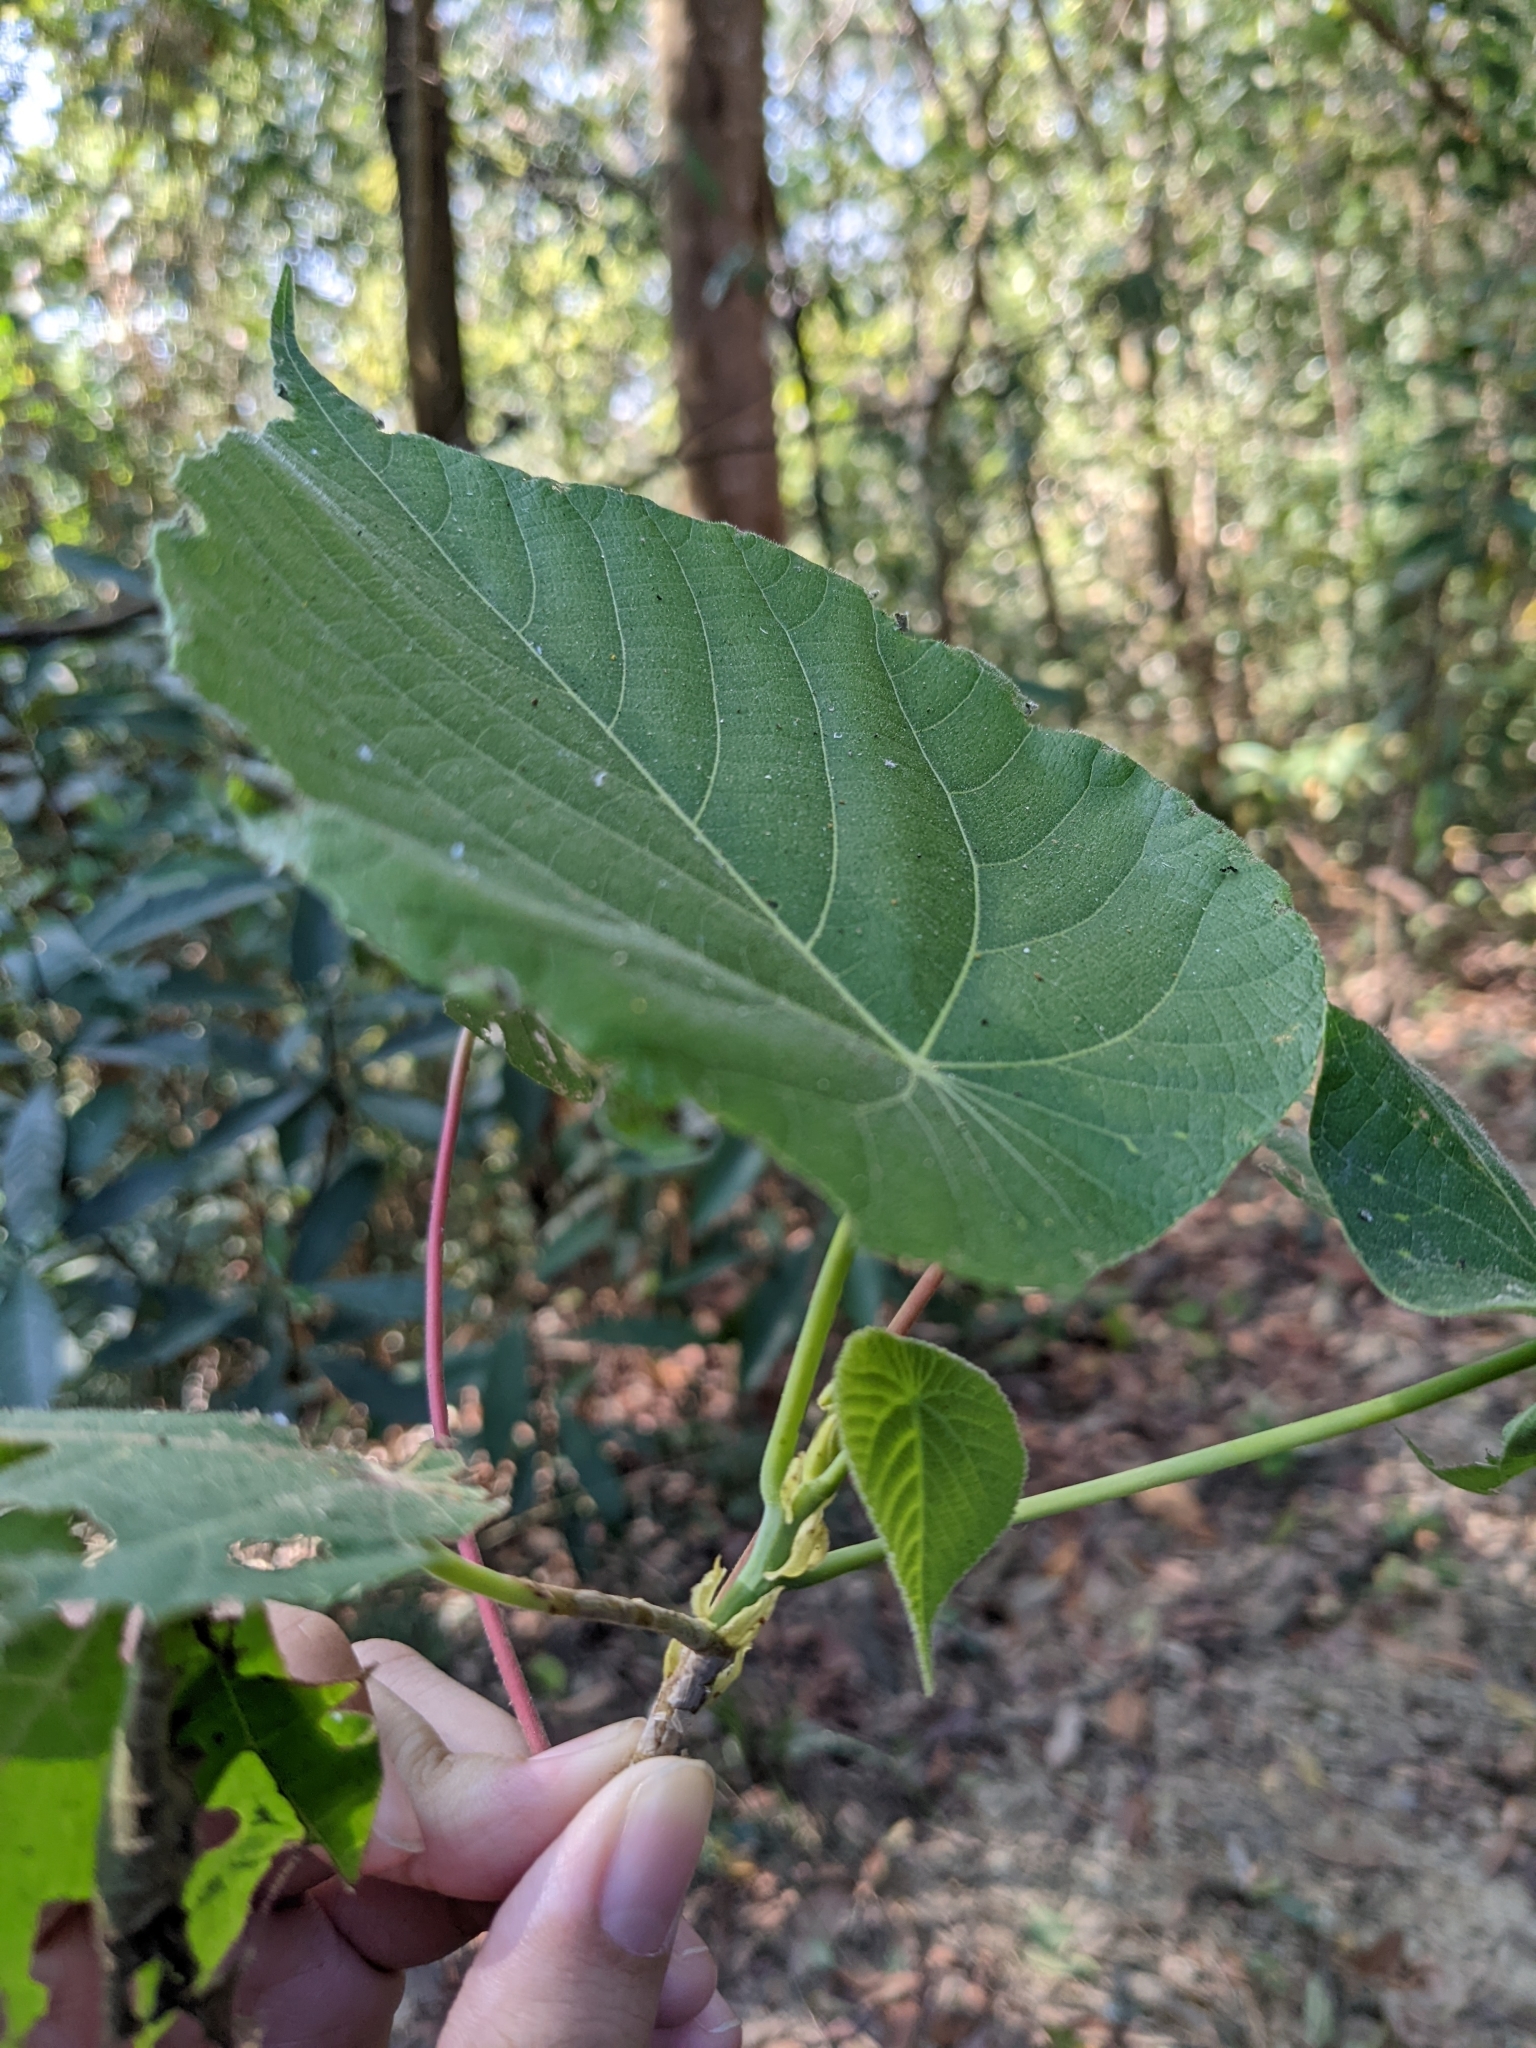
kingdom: Plantae
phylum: Tracheophyta
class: Magnoliopsida
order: Malpighiales
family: Euphorbiaceae
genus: Macaranga
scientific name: Macaranga tanarius
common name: Parasol leaf tree
